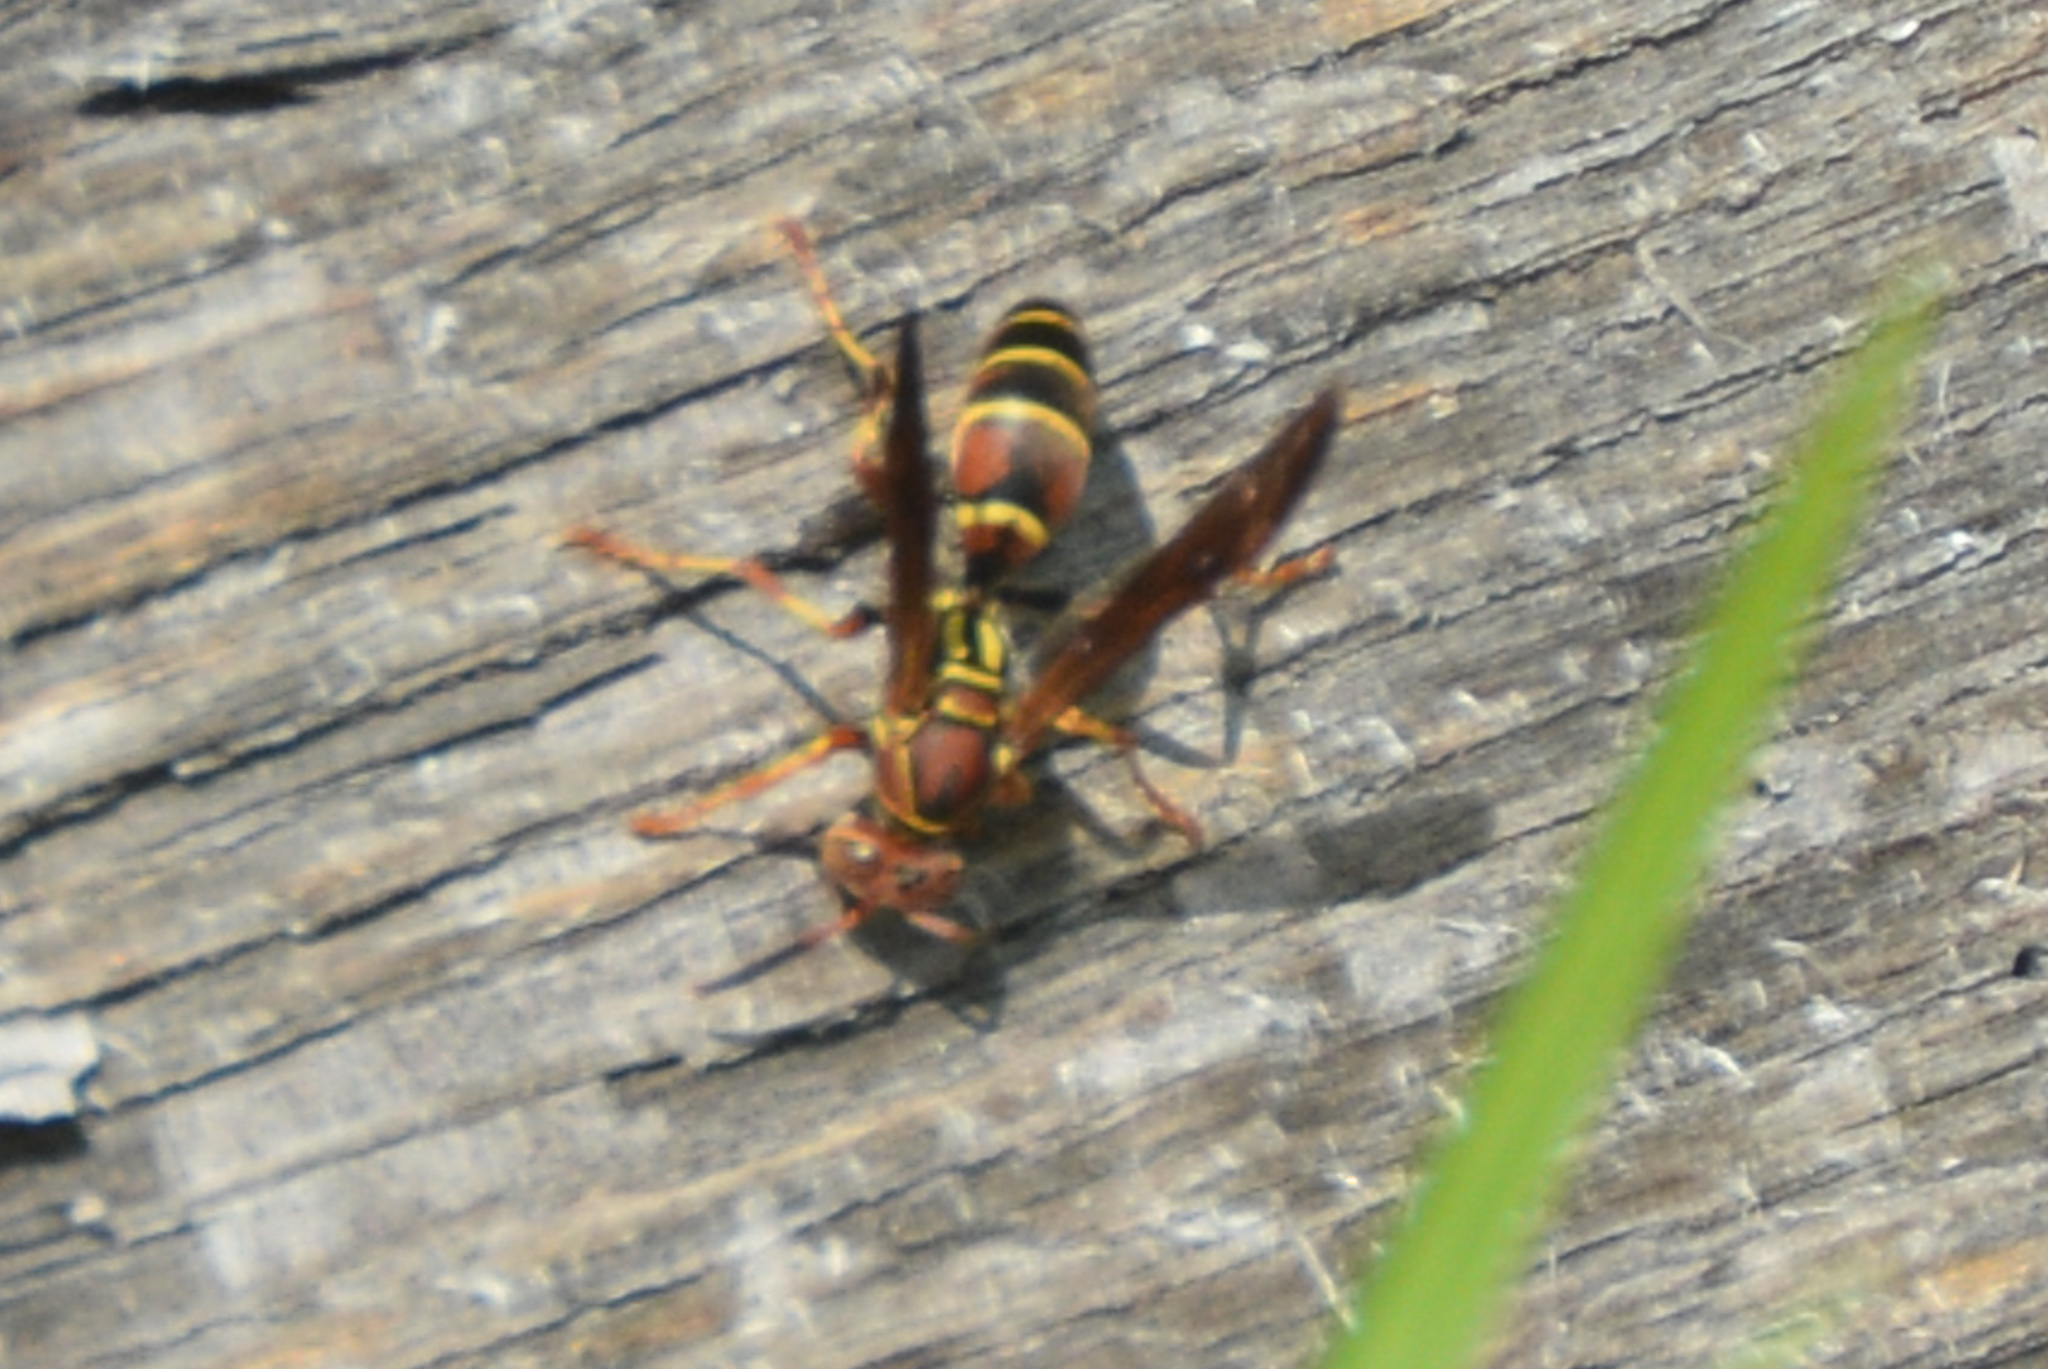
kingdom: Animalia
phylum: Arthropoda
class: Insecta
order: Hymenoptera
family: Eumenidae
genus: Polistes
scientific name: Polistes dorsalis
